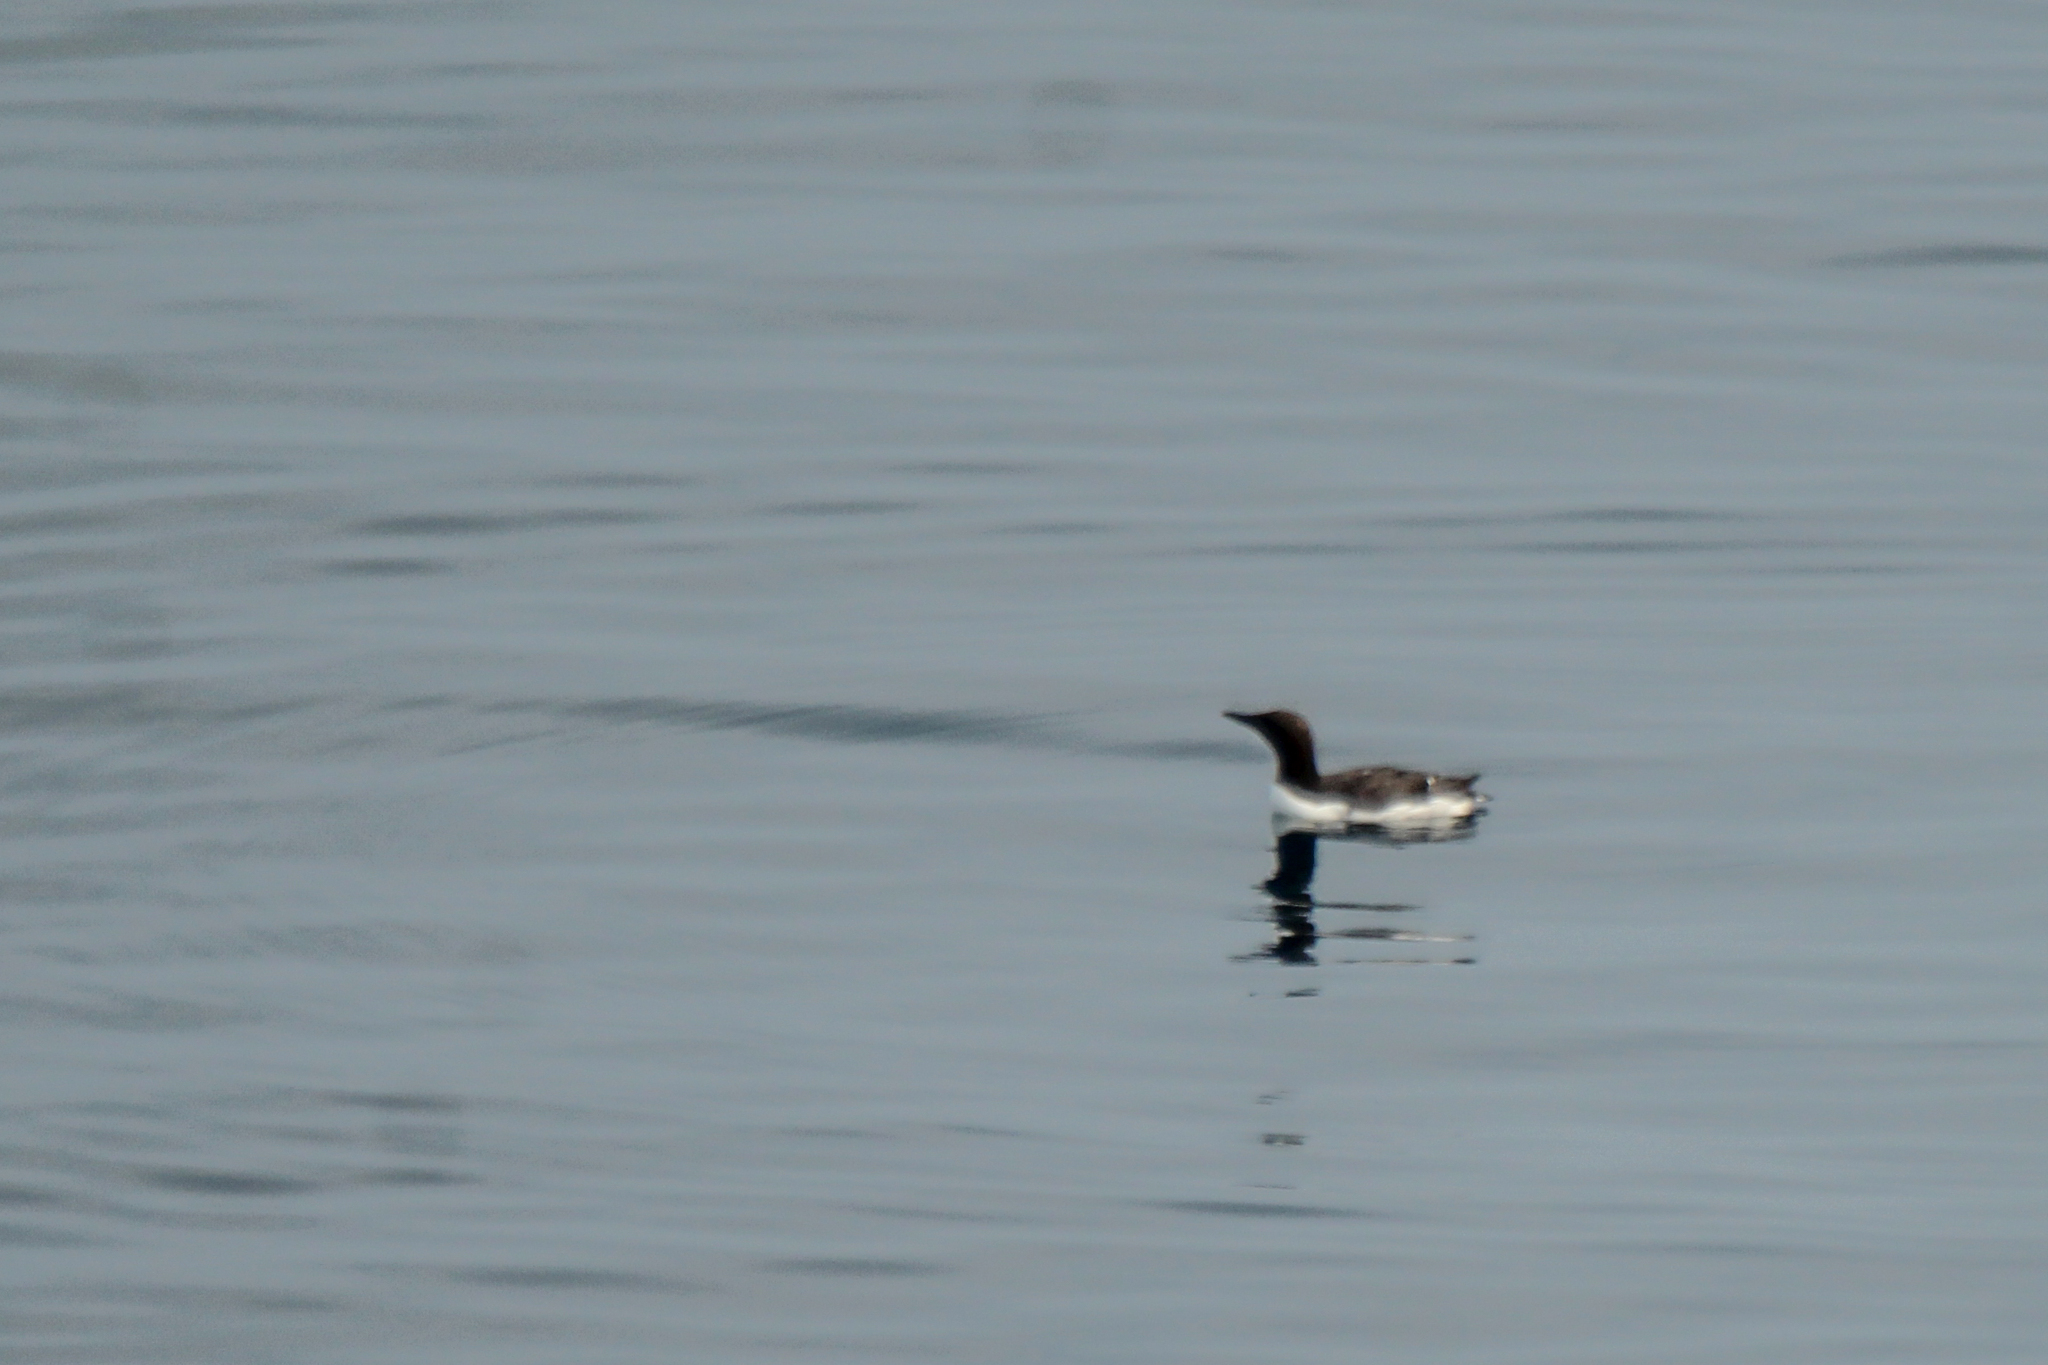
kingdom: Animalia
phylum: Chordata
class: Aves
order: Charadriiformes
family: Alcidae
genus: Uria
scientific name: Uria aalge
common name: Common murre
